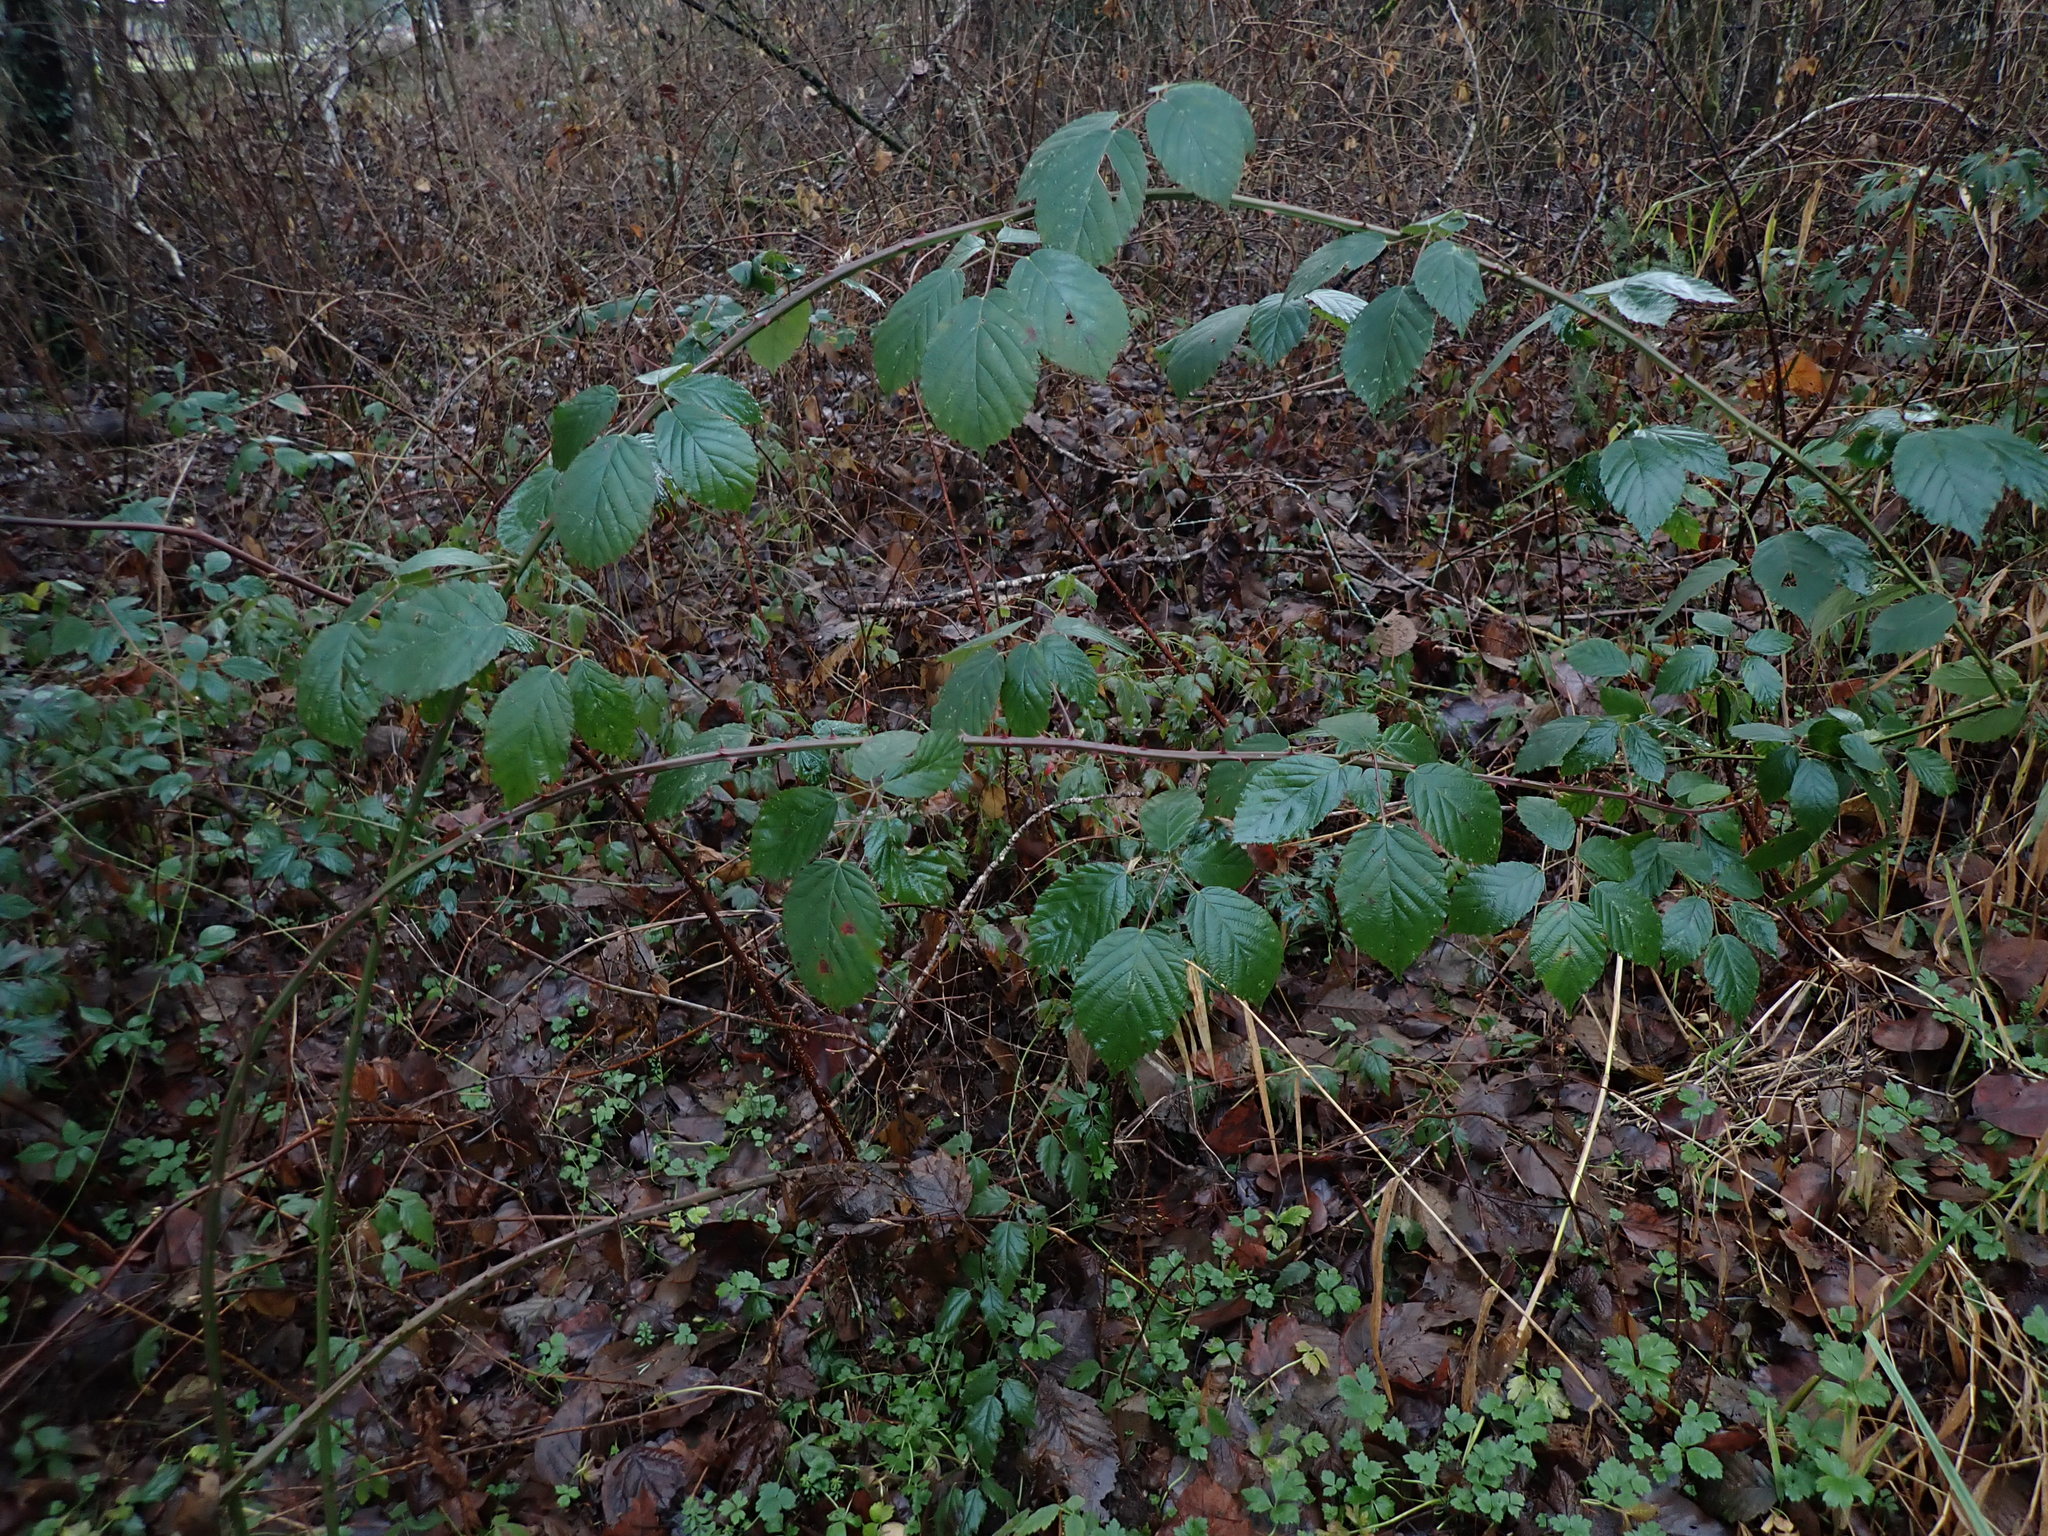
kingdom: Plantae
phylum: Tracheophyta
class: Magnoliopsida
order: Rosales
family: Rosaceae
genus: Rubus
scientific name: Rubus bifrons
